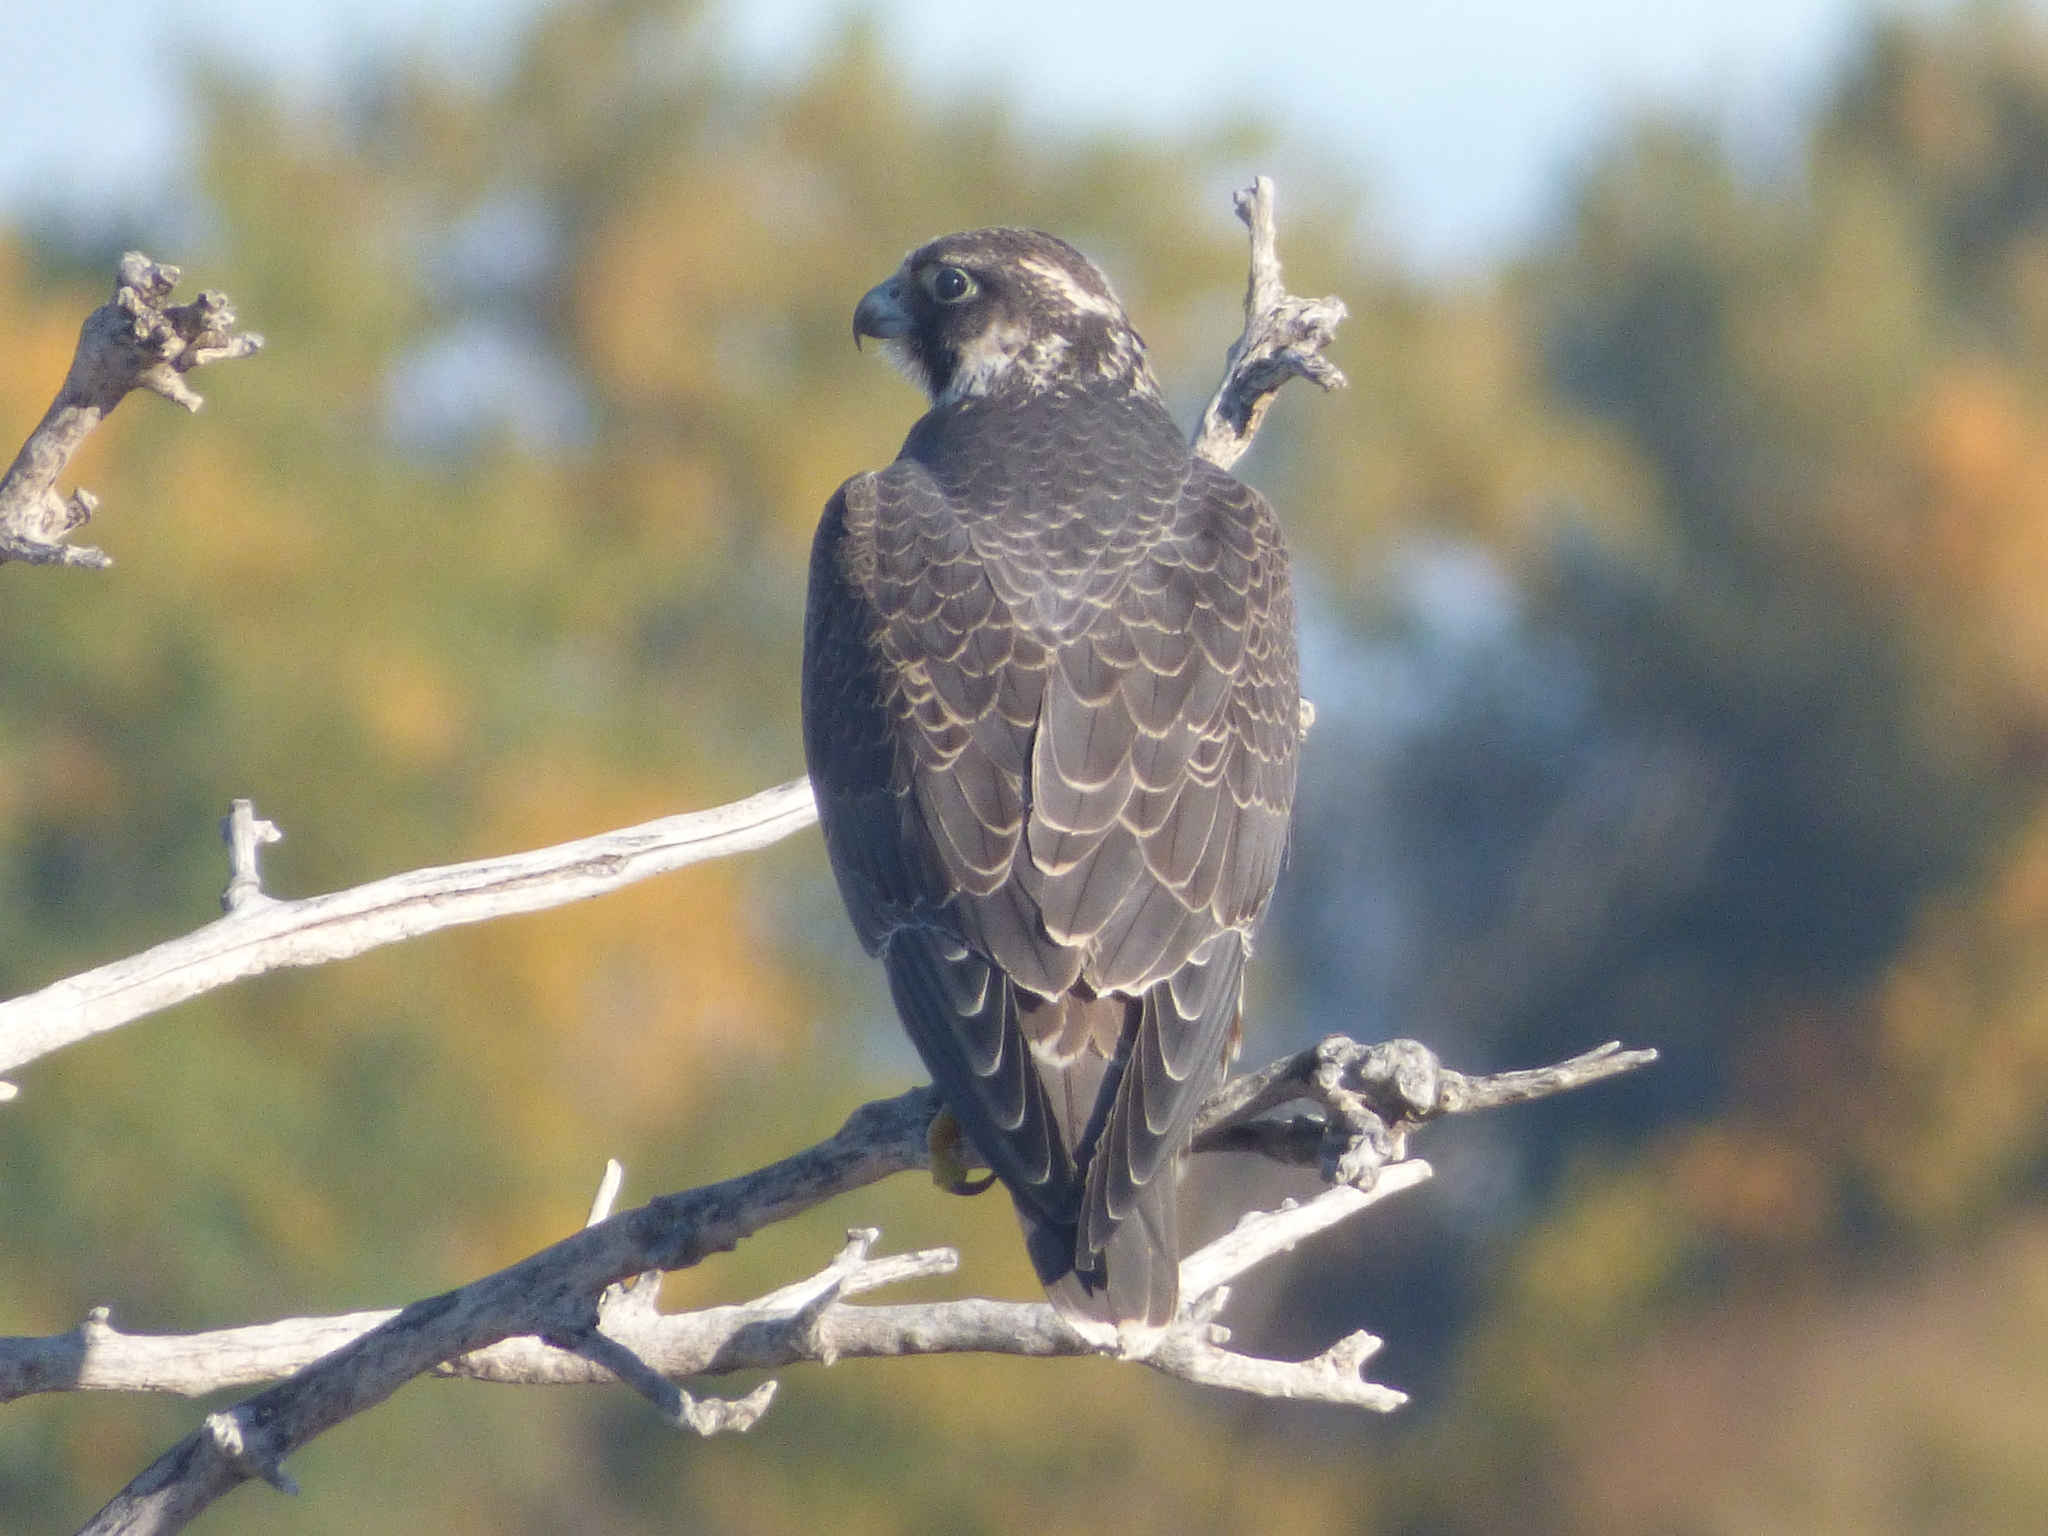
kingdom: Animalia
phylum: Chordata
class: Aves
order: Falconiformes
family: Falconidae
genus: Falco
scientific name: Falco peregrinus
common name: Peregrine falcon
